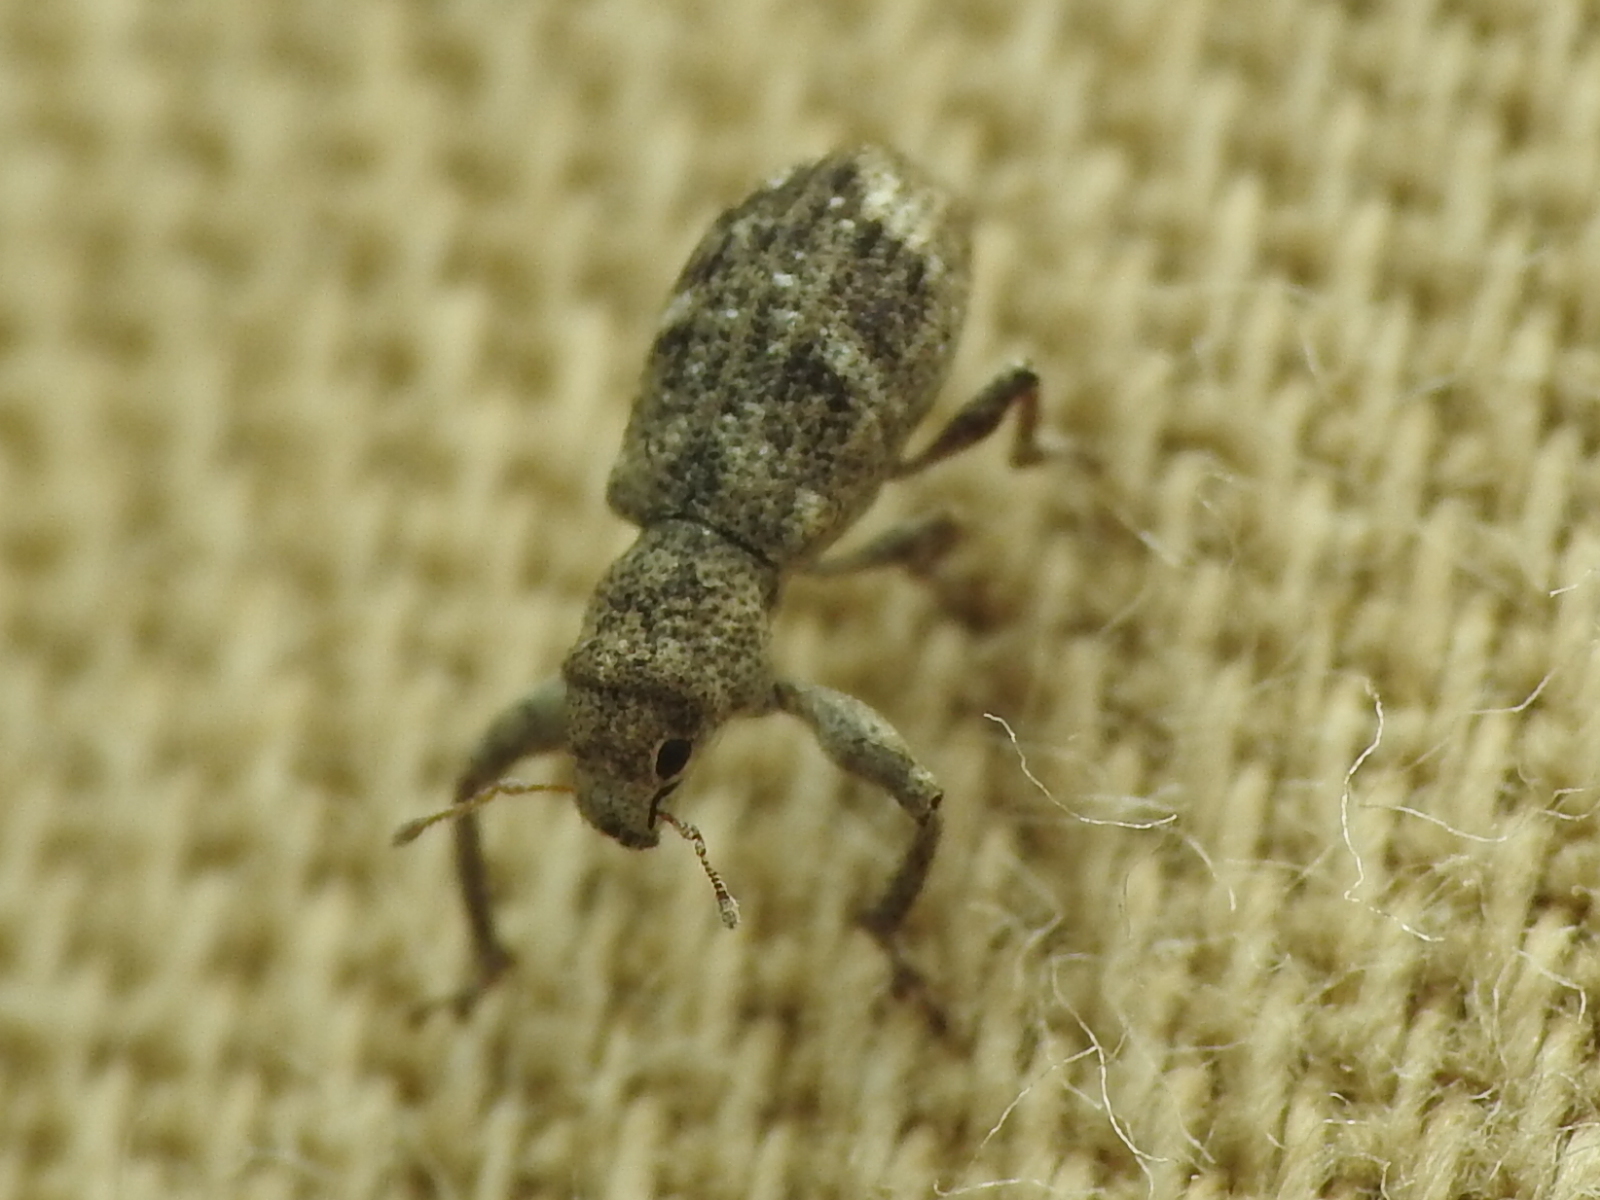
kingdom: Animalia
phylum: Arthropoda
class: Insecta
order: Coleoptera
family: Curculionidae
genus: Pandeleteius
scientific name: Pandeleteius cinereus
